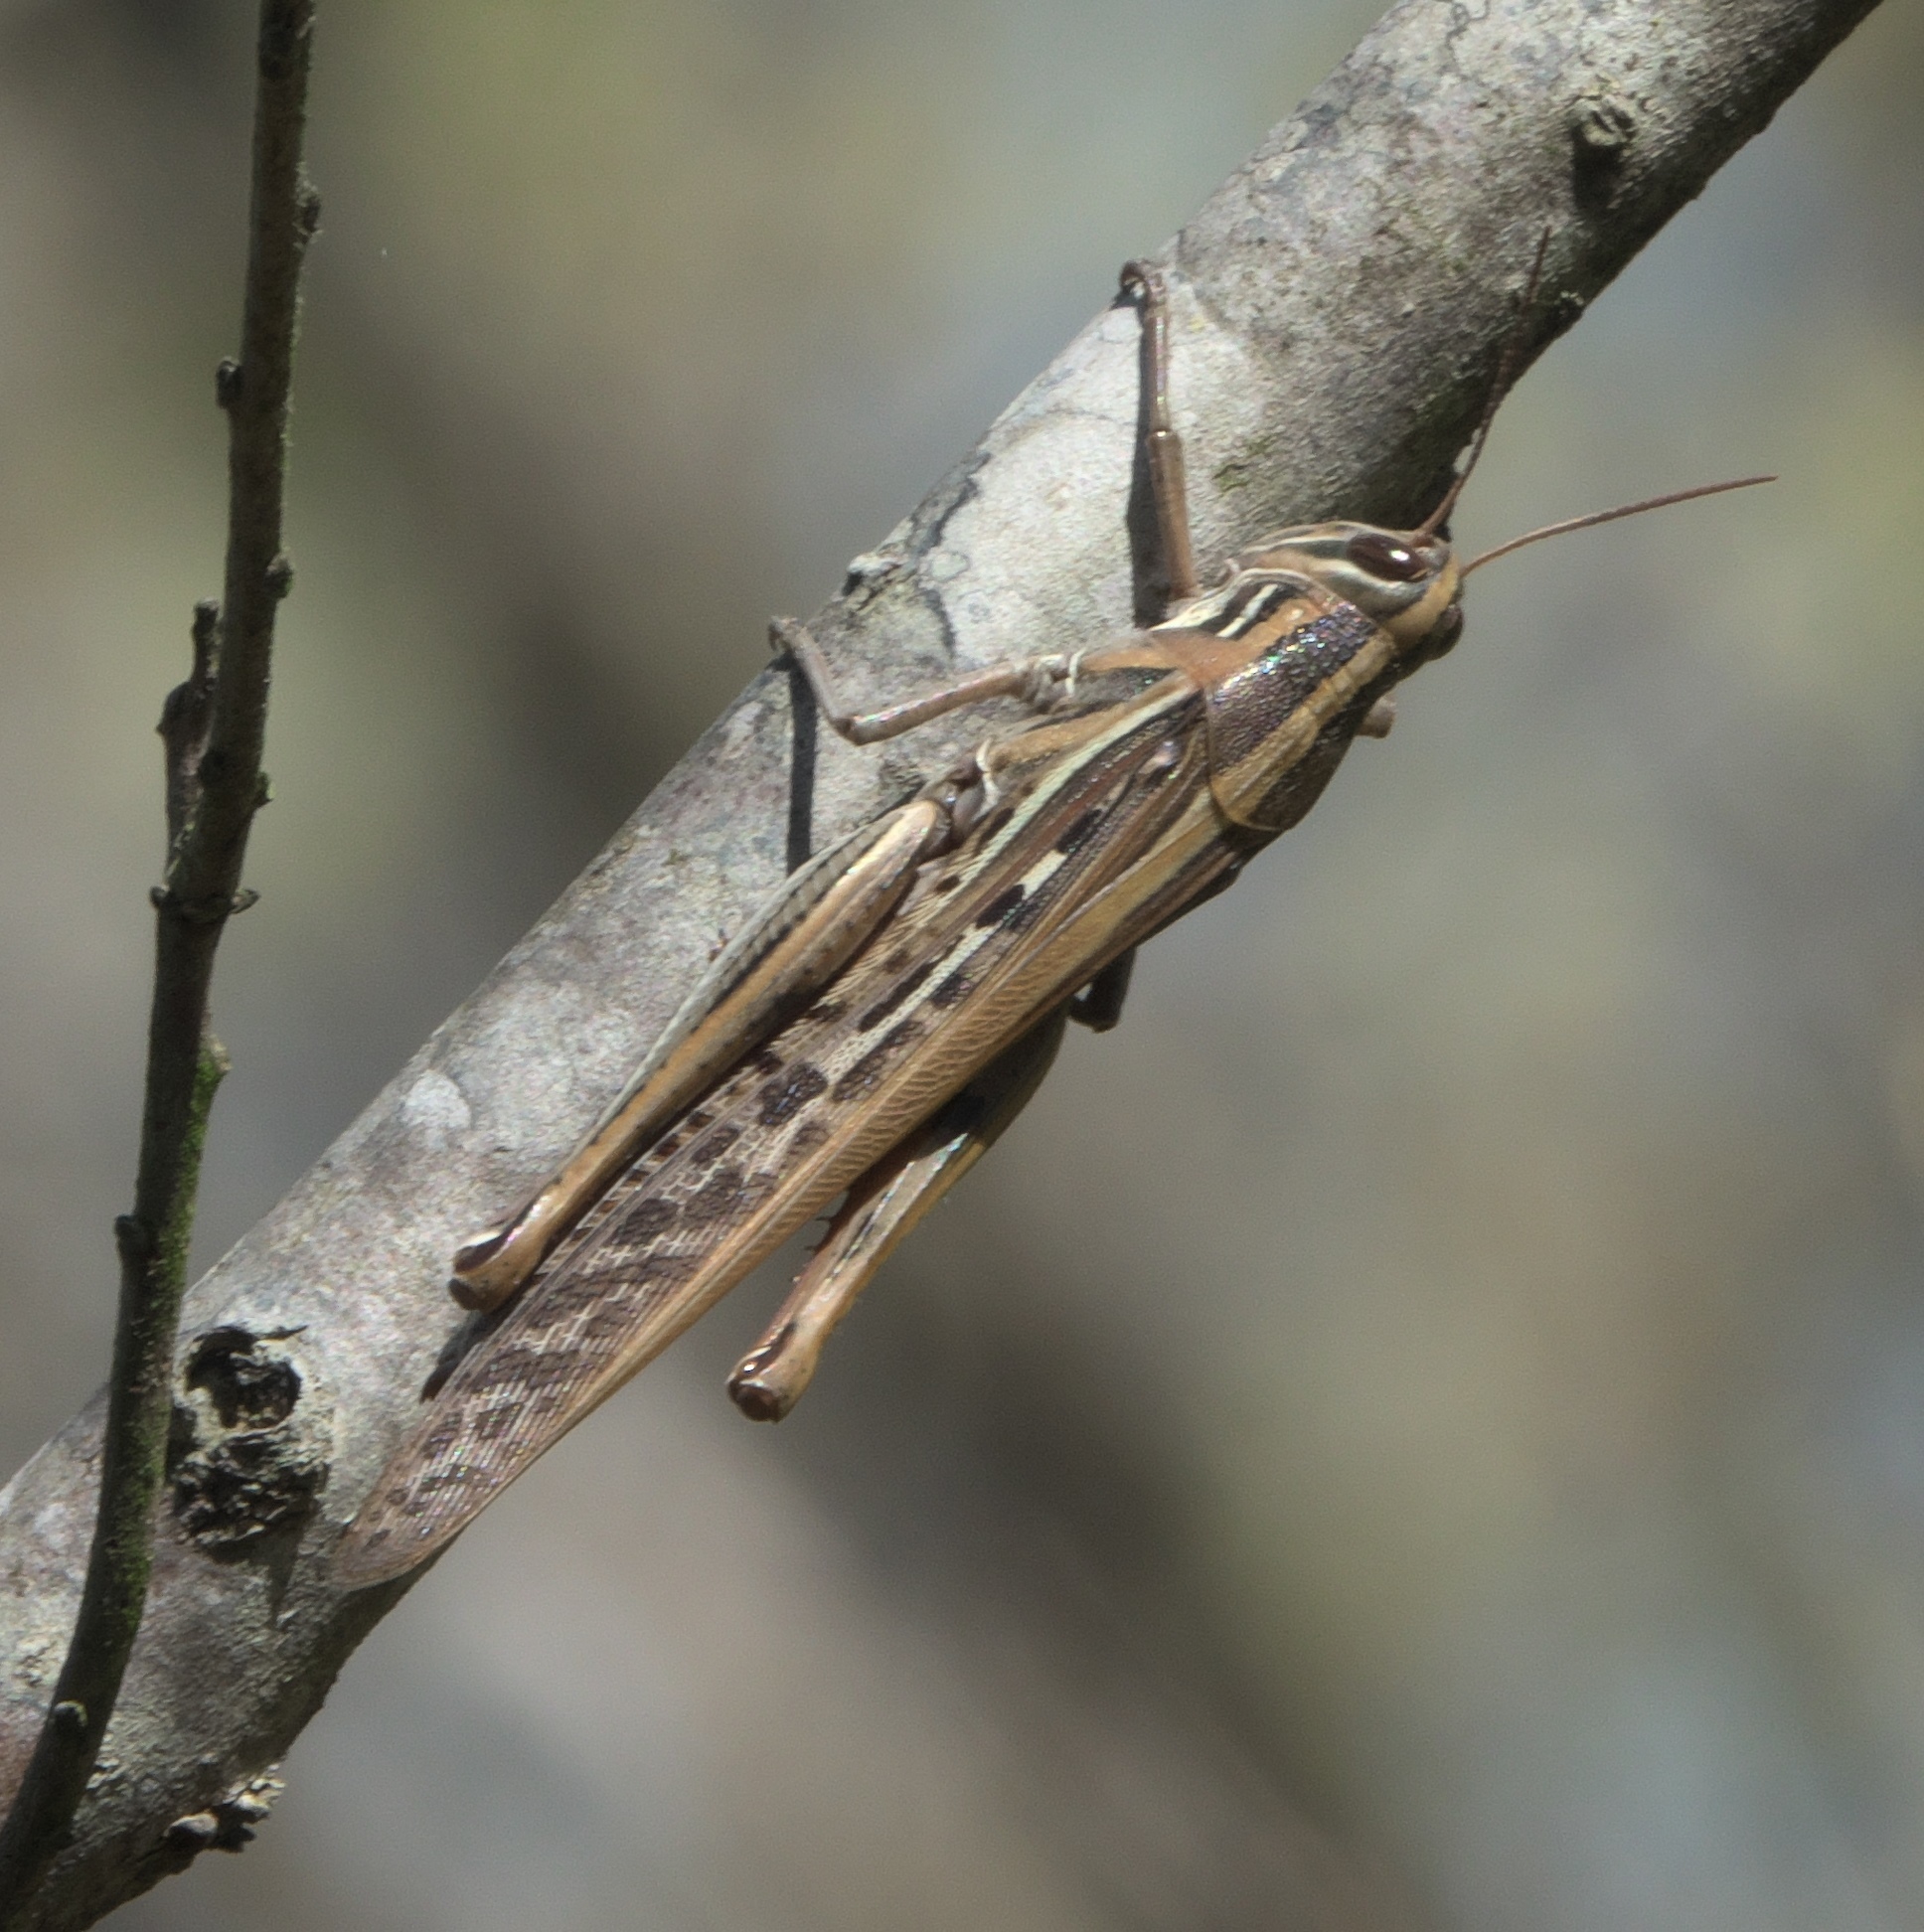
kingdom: Animalia
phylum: Arthropoda
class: Insecta
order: Orthoptera
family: Acrididae
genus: Schistocerca
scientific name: Schistocerca americana
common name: American bird locust
